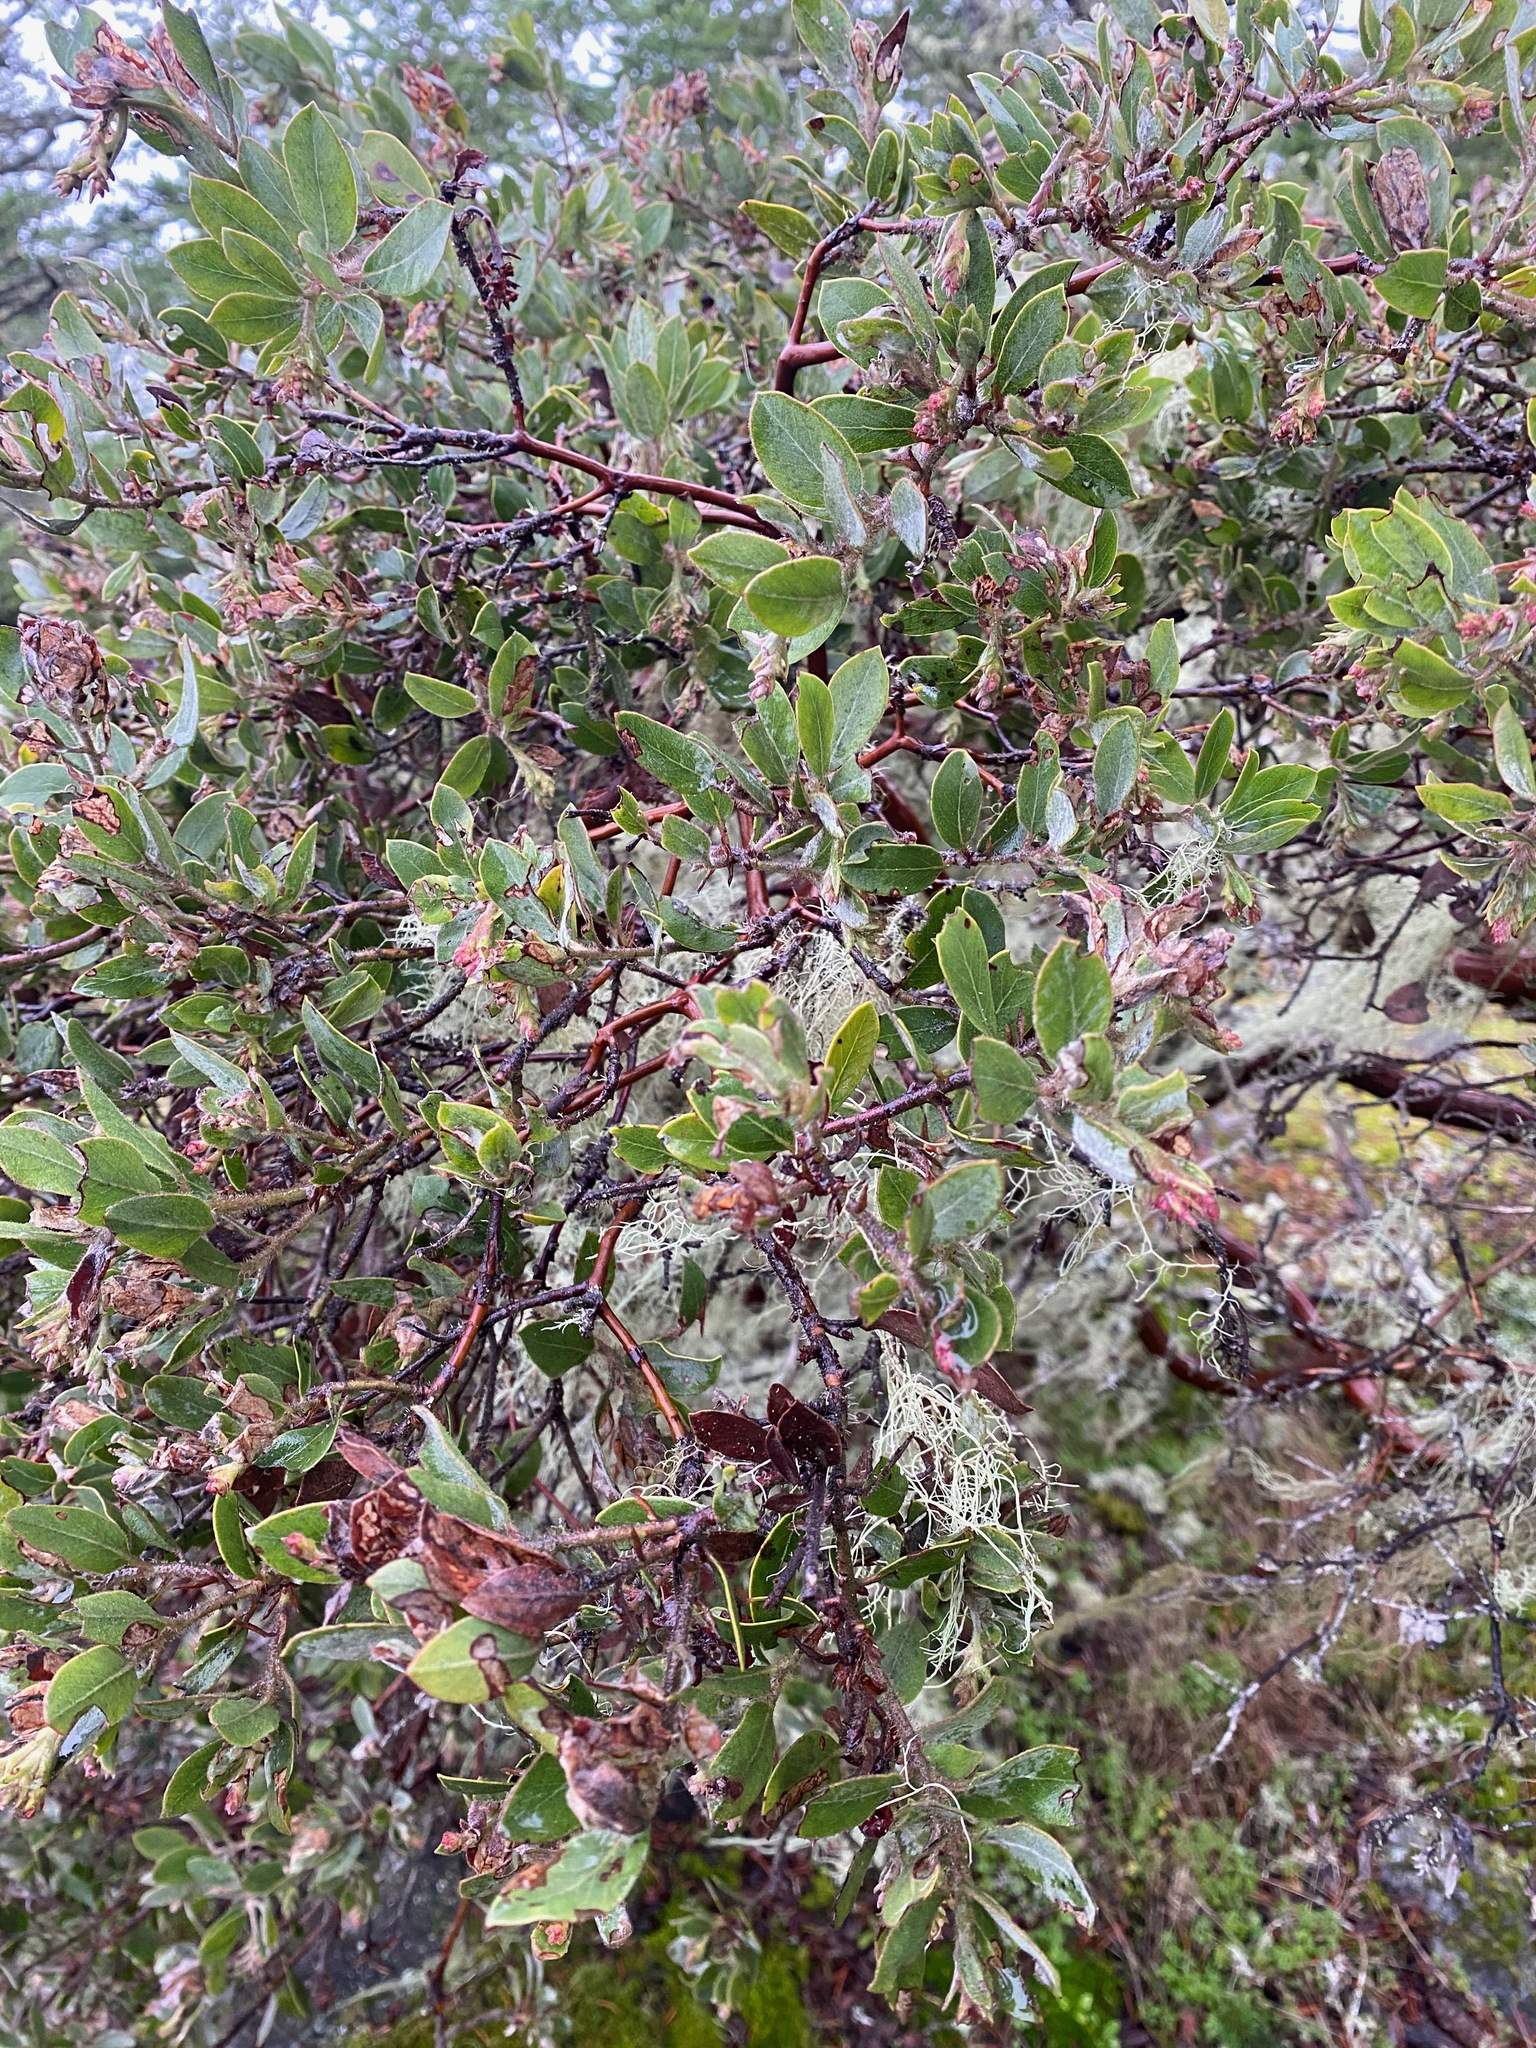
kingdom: Plantae
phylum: Tracheophyta
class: Magnoliopsida
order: Ericales
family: Ericaceae
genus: Arctostaphylos
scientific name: Arctostaphylos columbiana
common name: Bristly bearberry
